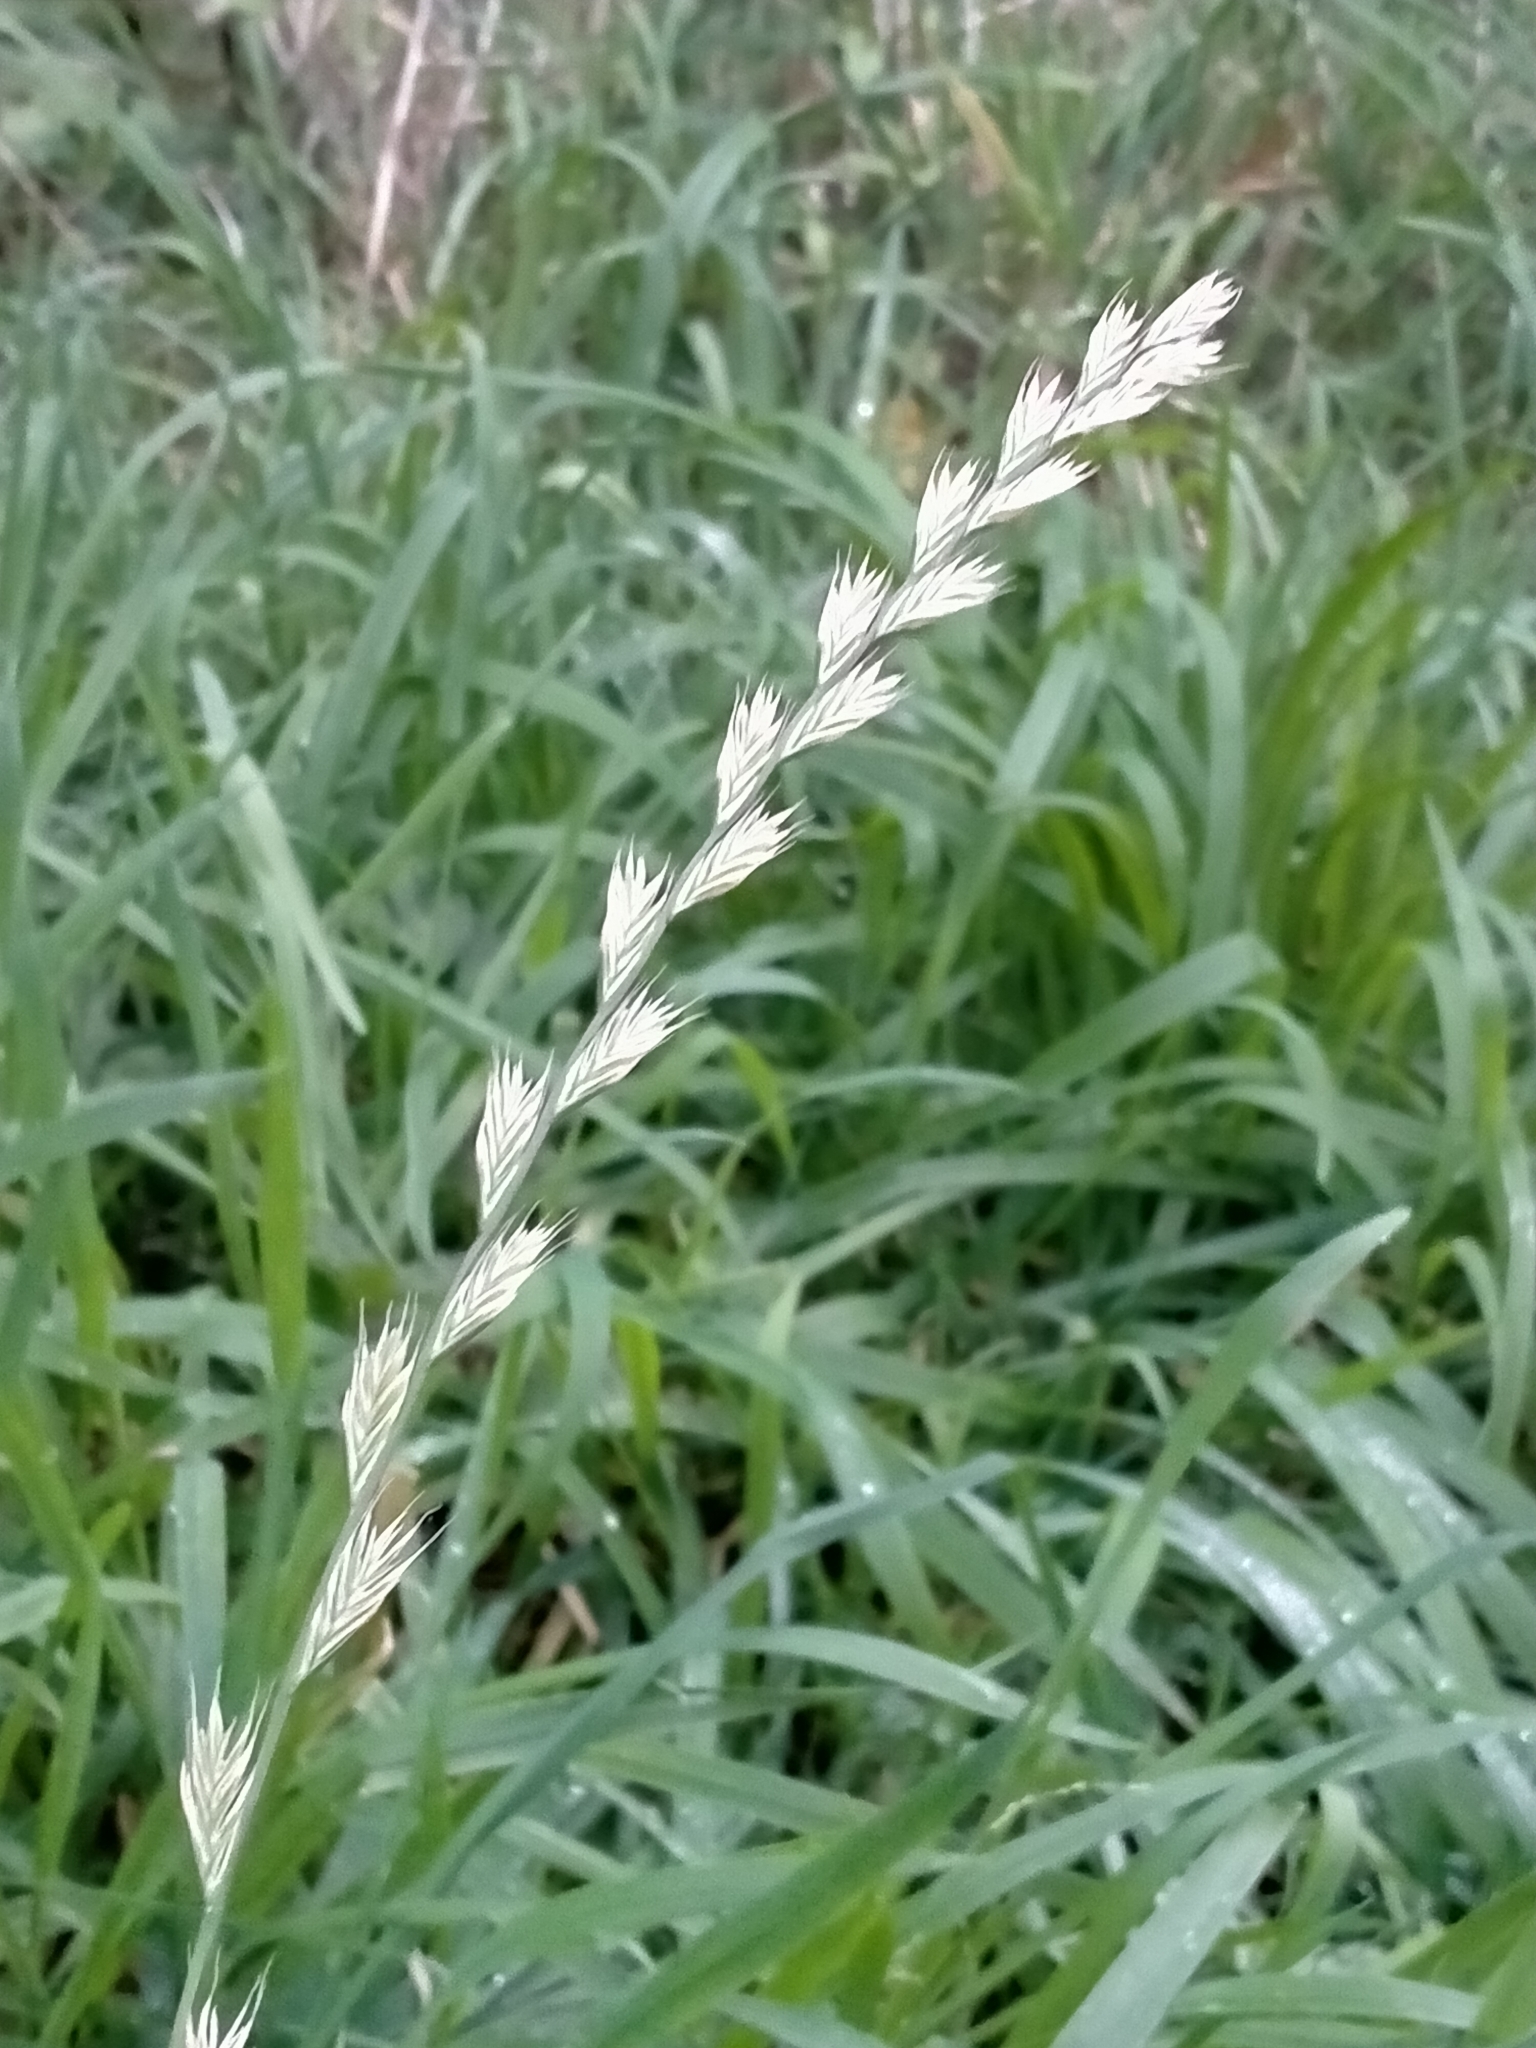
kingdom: Plantae
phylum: Tracheophyta
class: Liliopsida
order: Poales
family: Poaceae
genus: Lolium
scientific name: Lolium multiflorum
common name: Annual ryegrass
